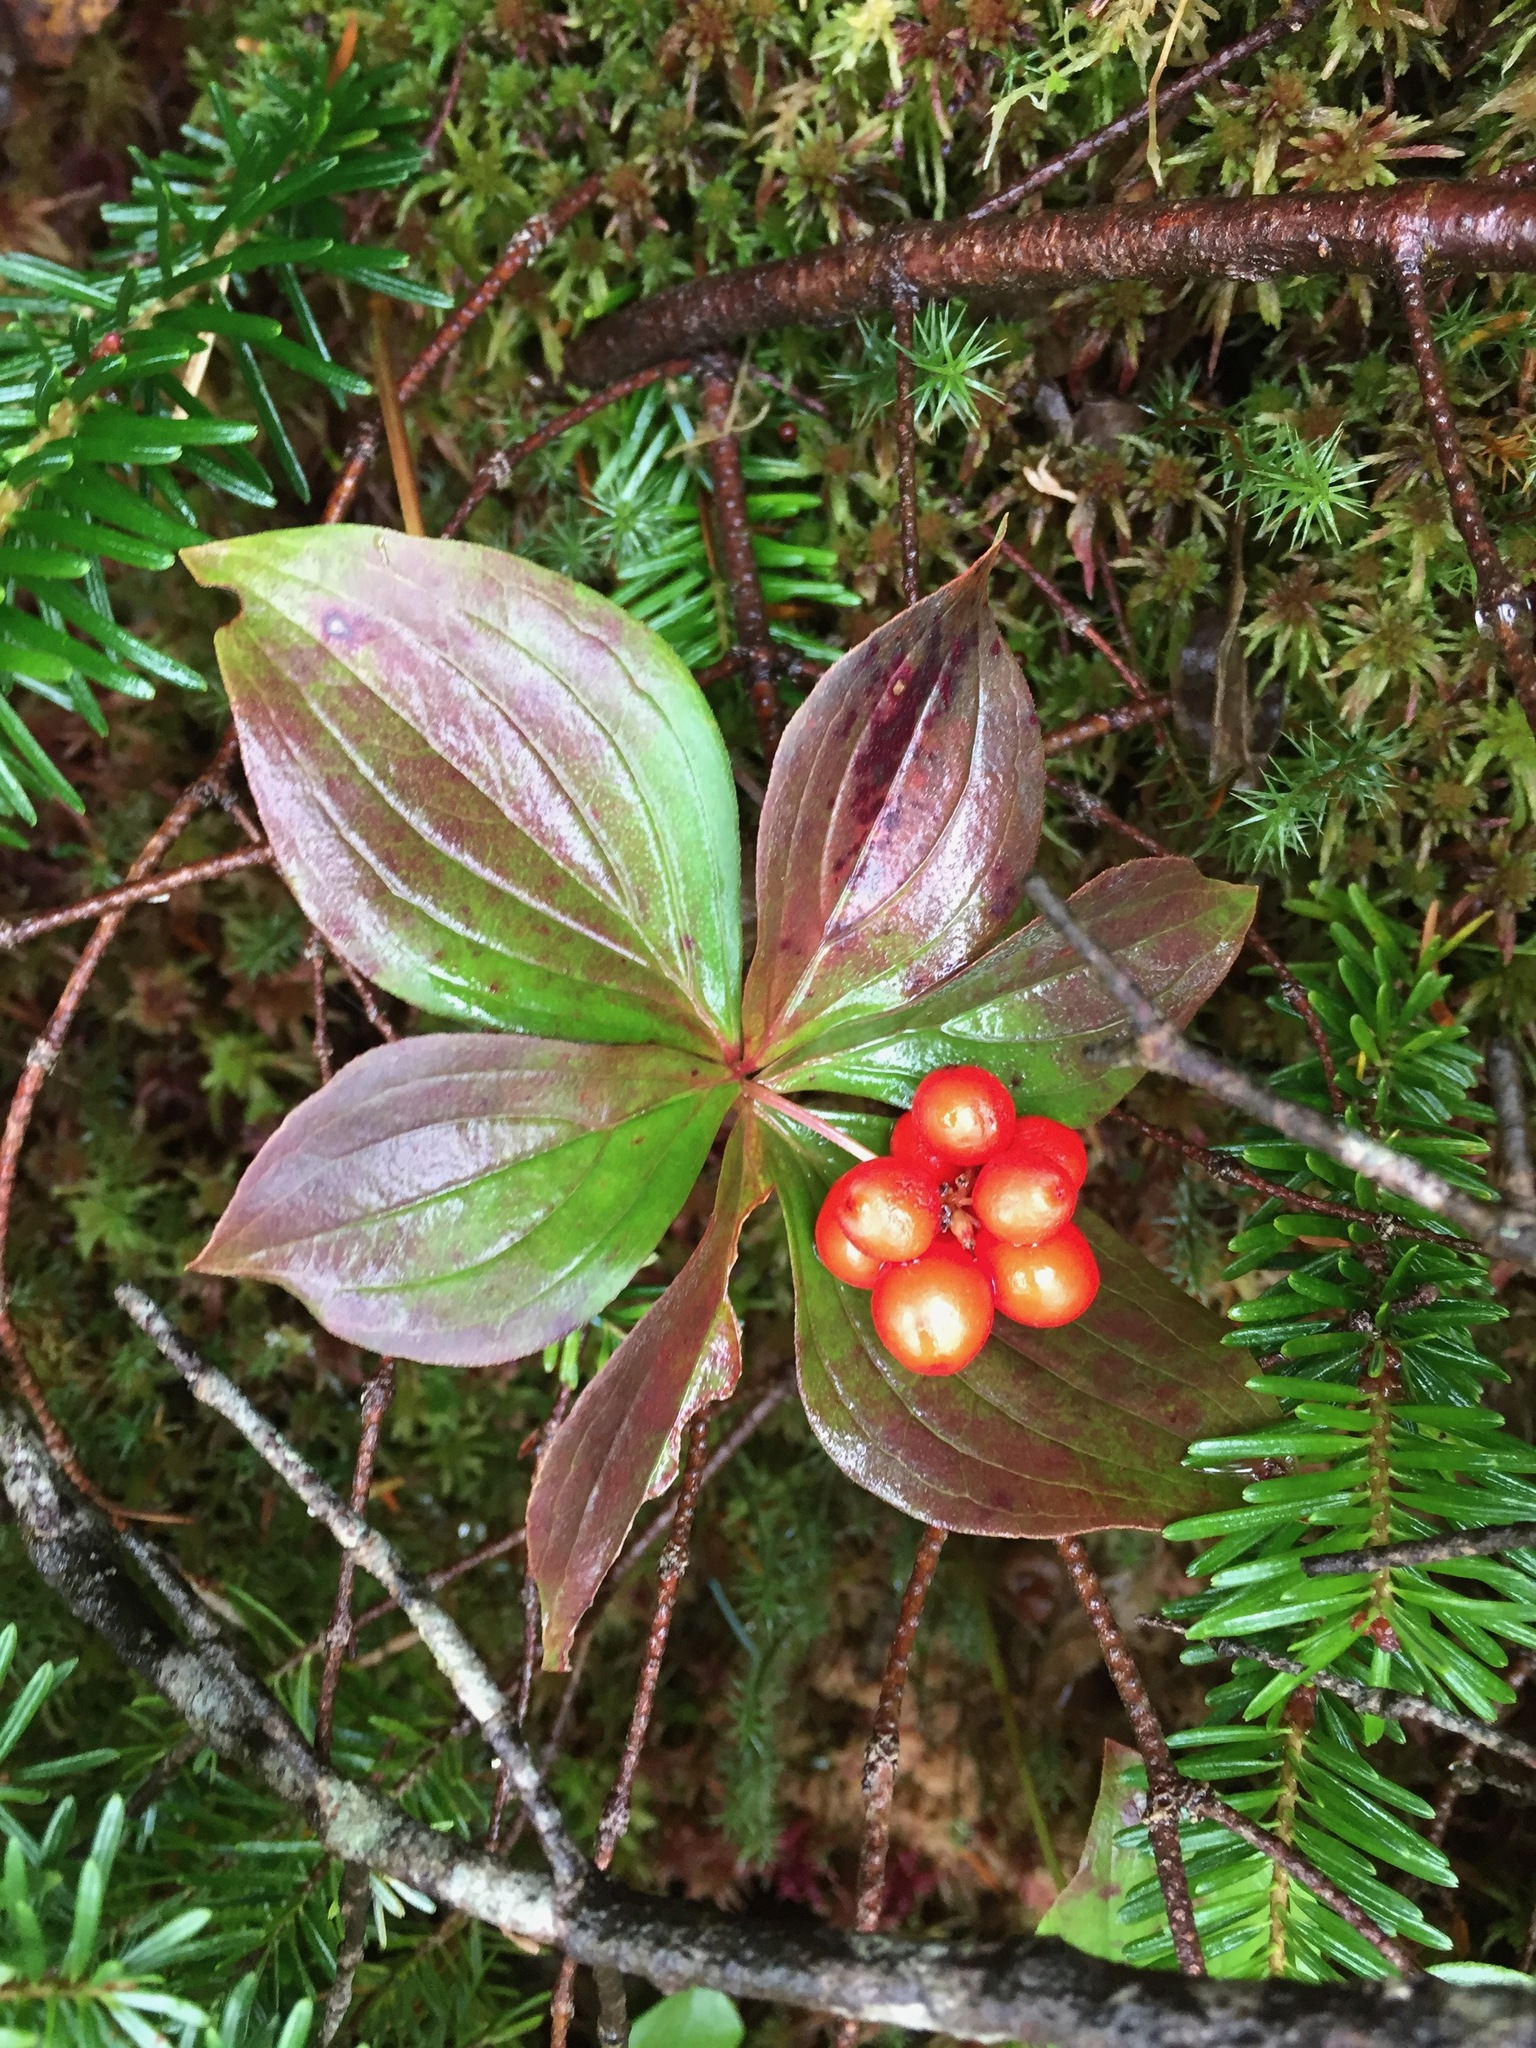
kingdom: Plantae
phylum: Tracheophyta
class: Magnoliopsida
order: Cornales
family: Cornaceae
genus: Cornus
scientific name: Cornus canadensis
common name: Creeping dogwood
